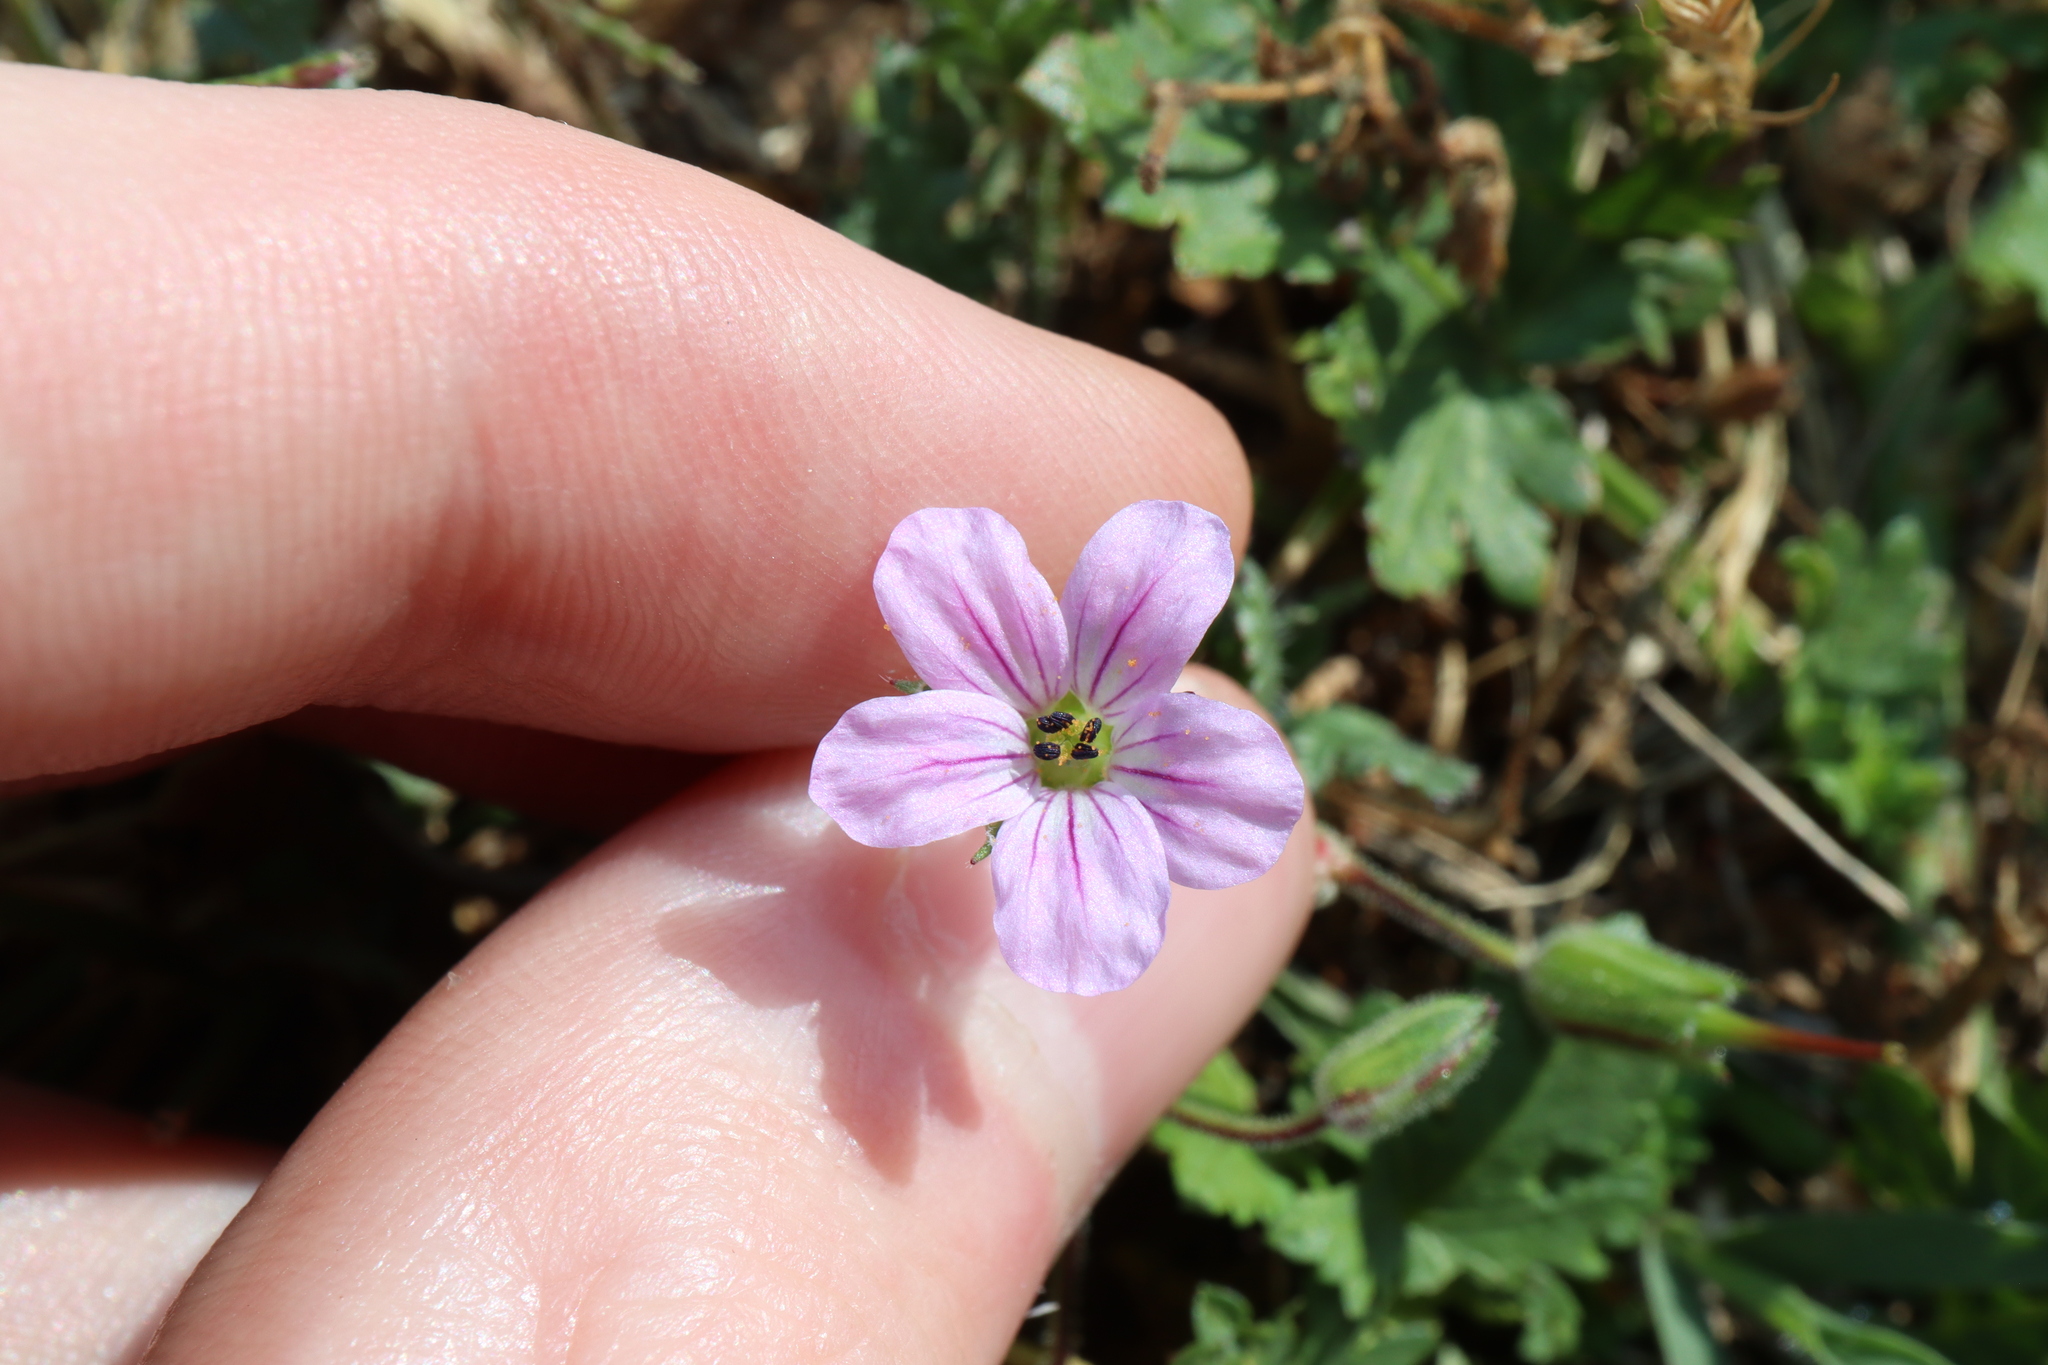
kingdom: Plantae
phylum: Tracheophyta
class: Magnoliopsida
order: Geraniales
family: Geraniaceae
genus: Erodium
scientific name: Erodium botrys
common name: Mediterranean stork's-bill
